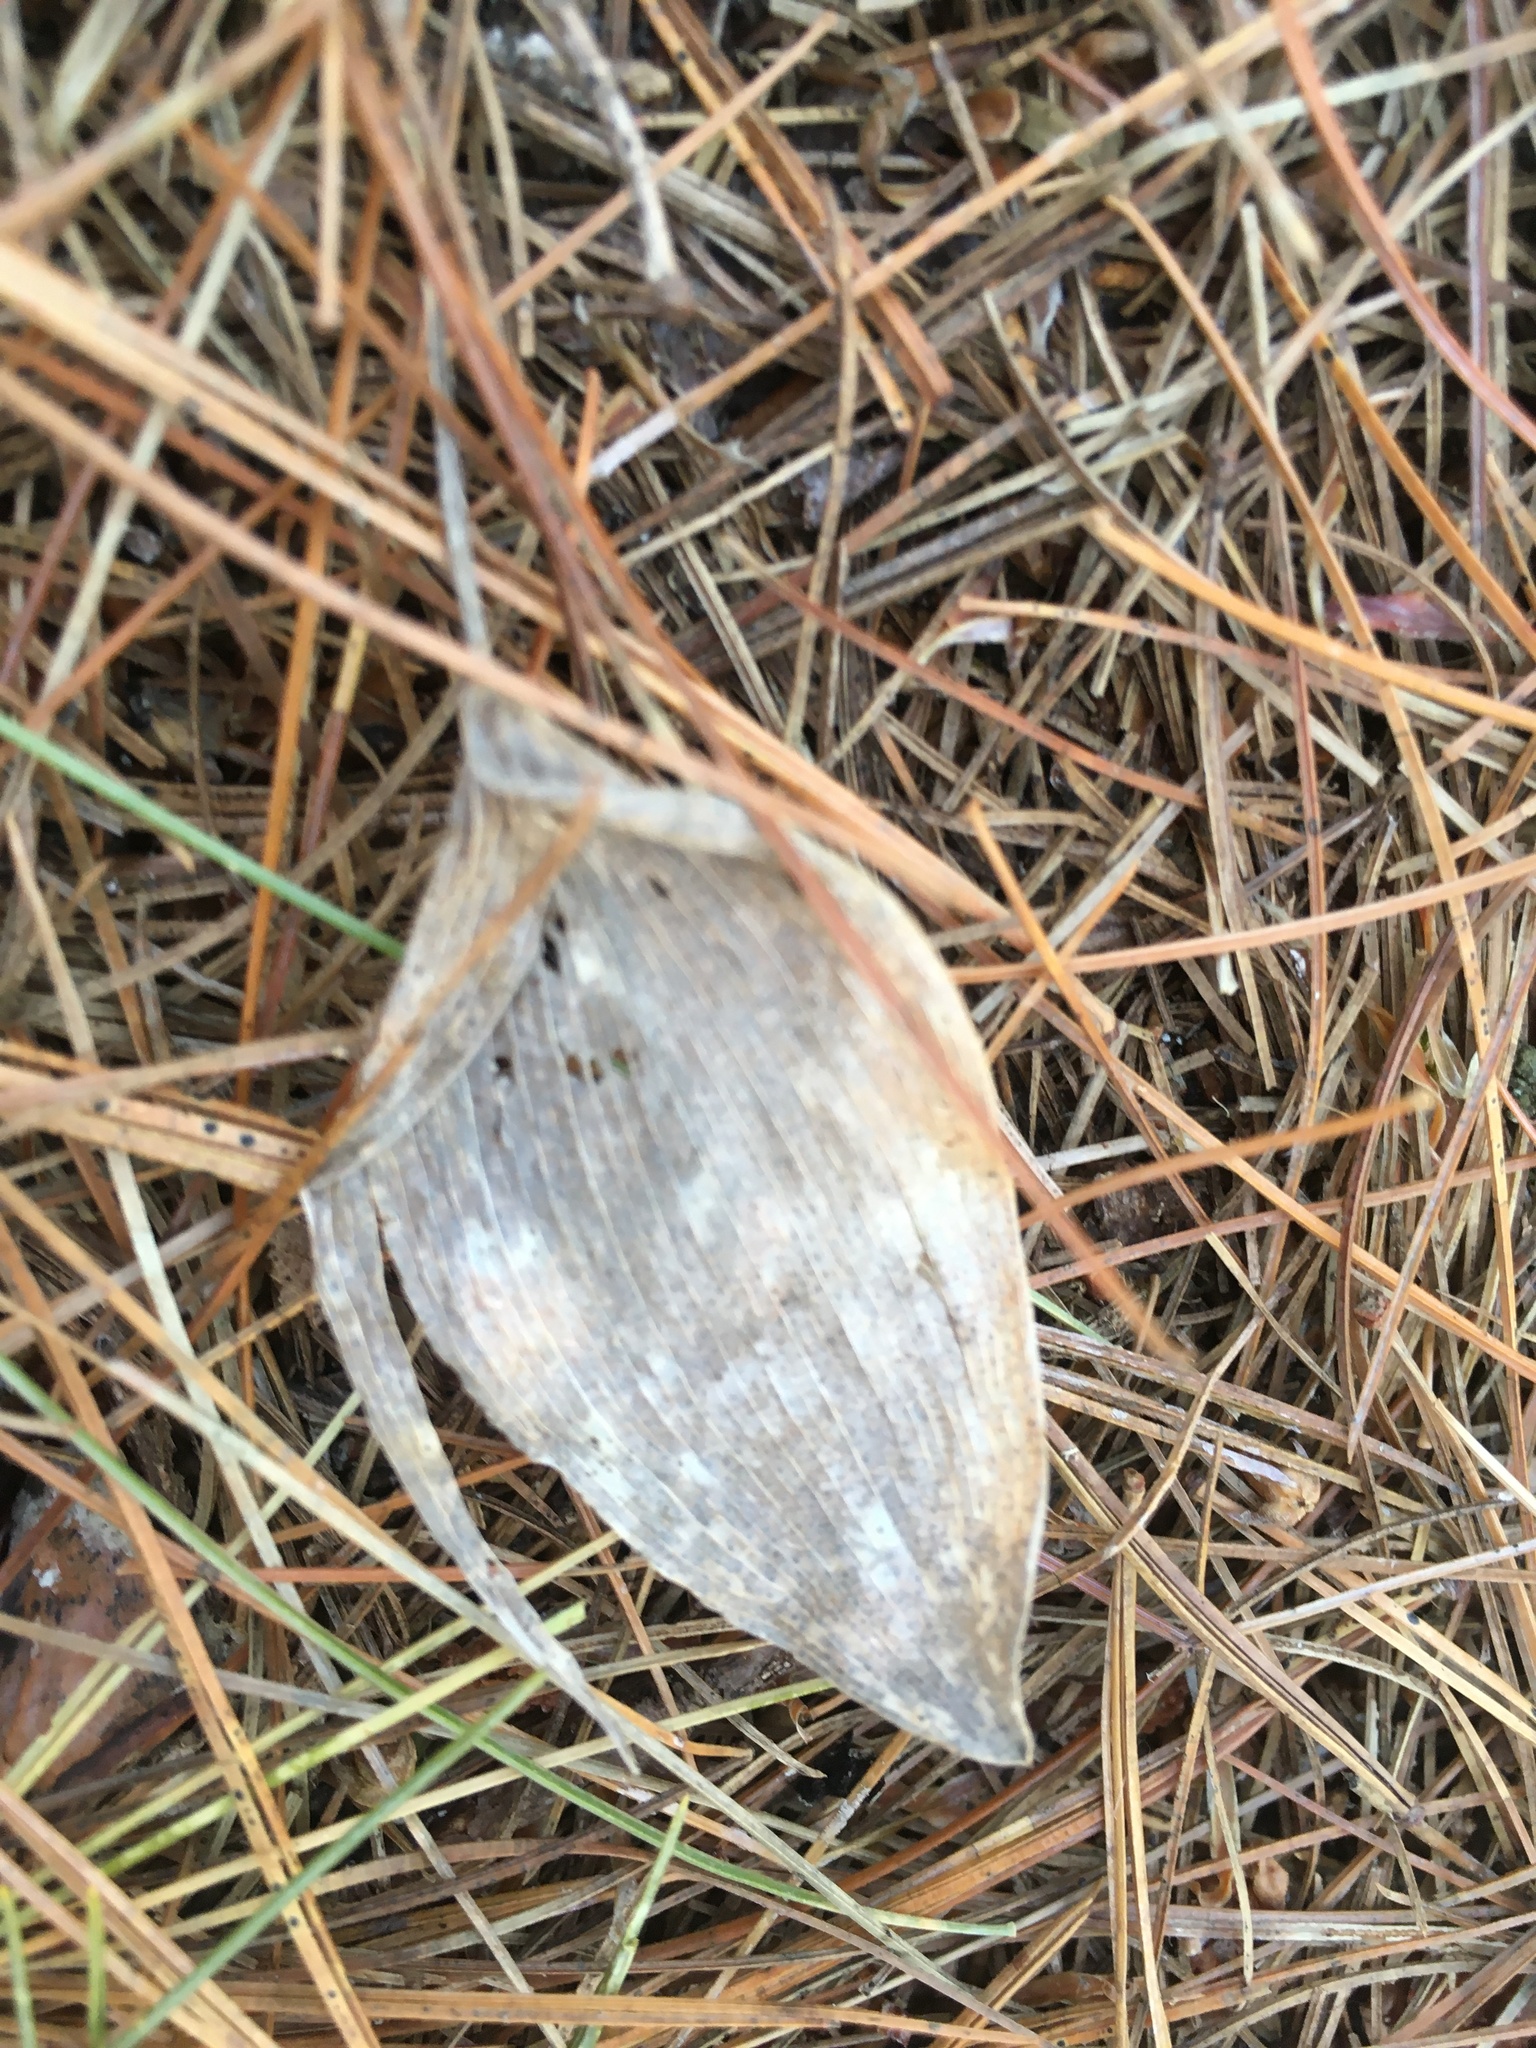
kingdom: Plantae
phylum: Tracheophyta
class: Liliopsida
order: Asparagales
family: Asparagaceae
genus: Maianthemum
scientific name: Maianthemum canadense
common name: False lily-of-the-valley
